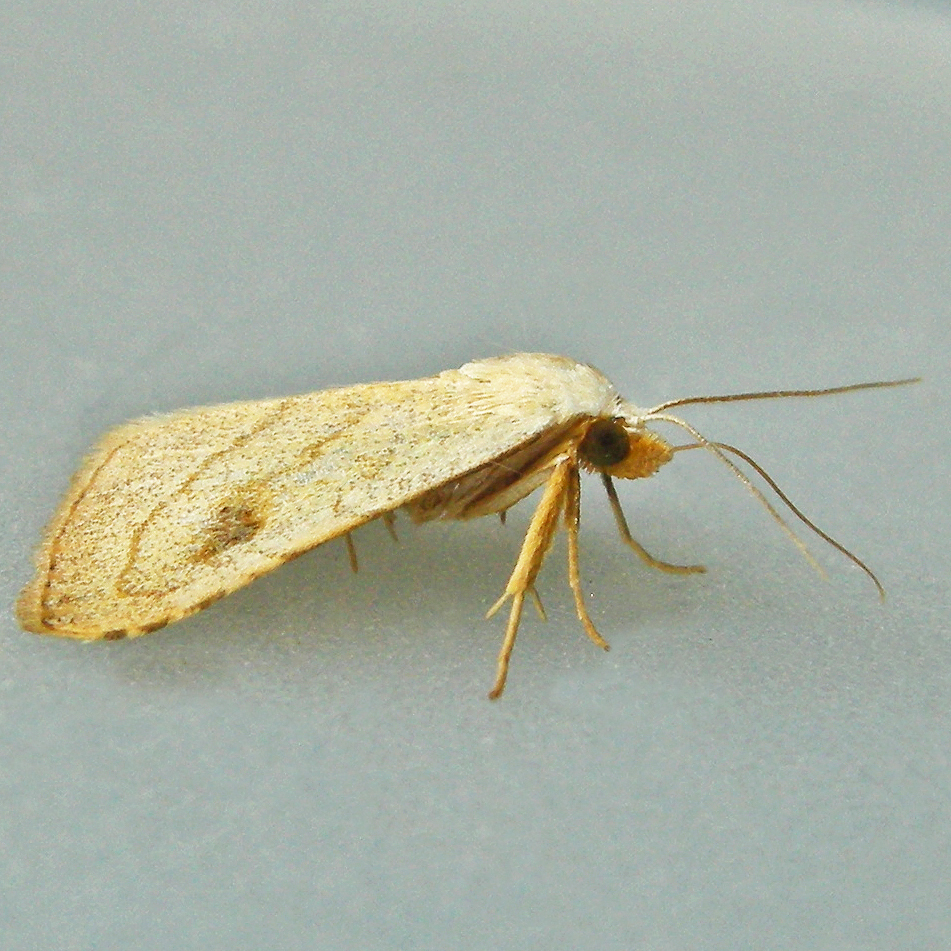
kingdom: Animalia
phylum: Arthropoda
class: Insecta
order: Lepidoptera
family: Erebidae
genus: Rivula
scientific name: Rivula propinqualis
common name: Spotted grass moth
